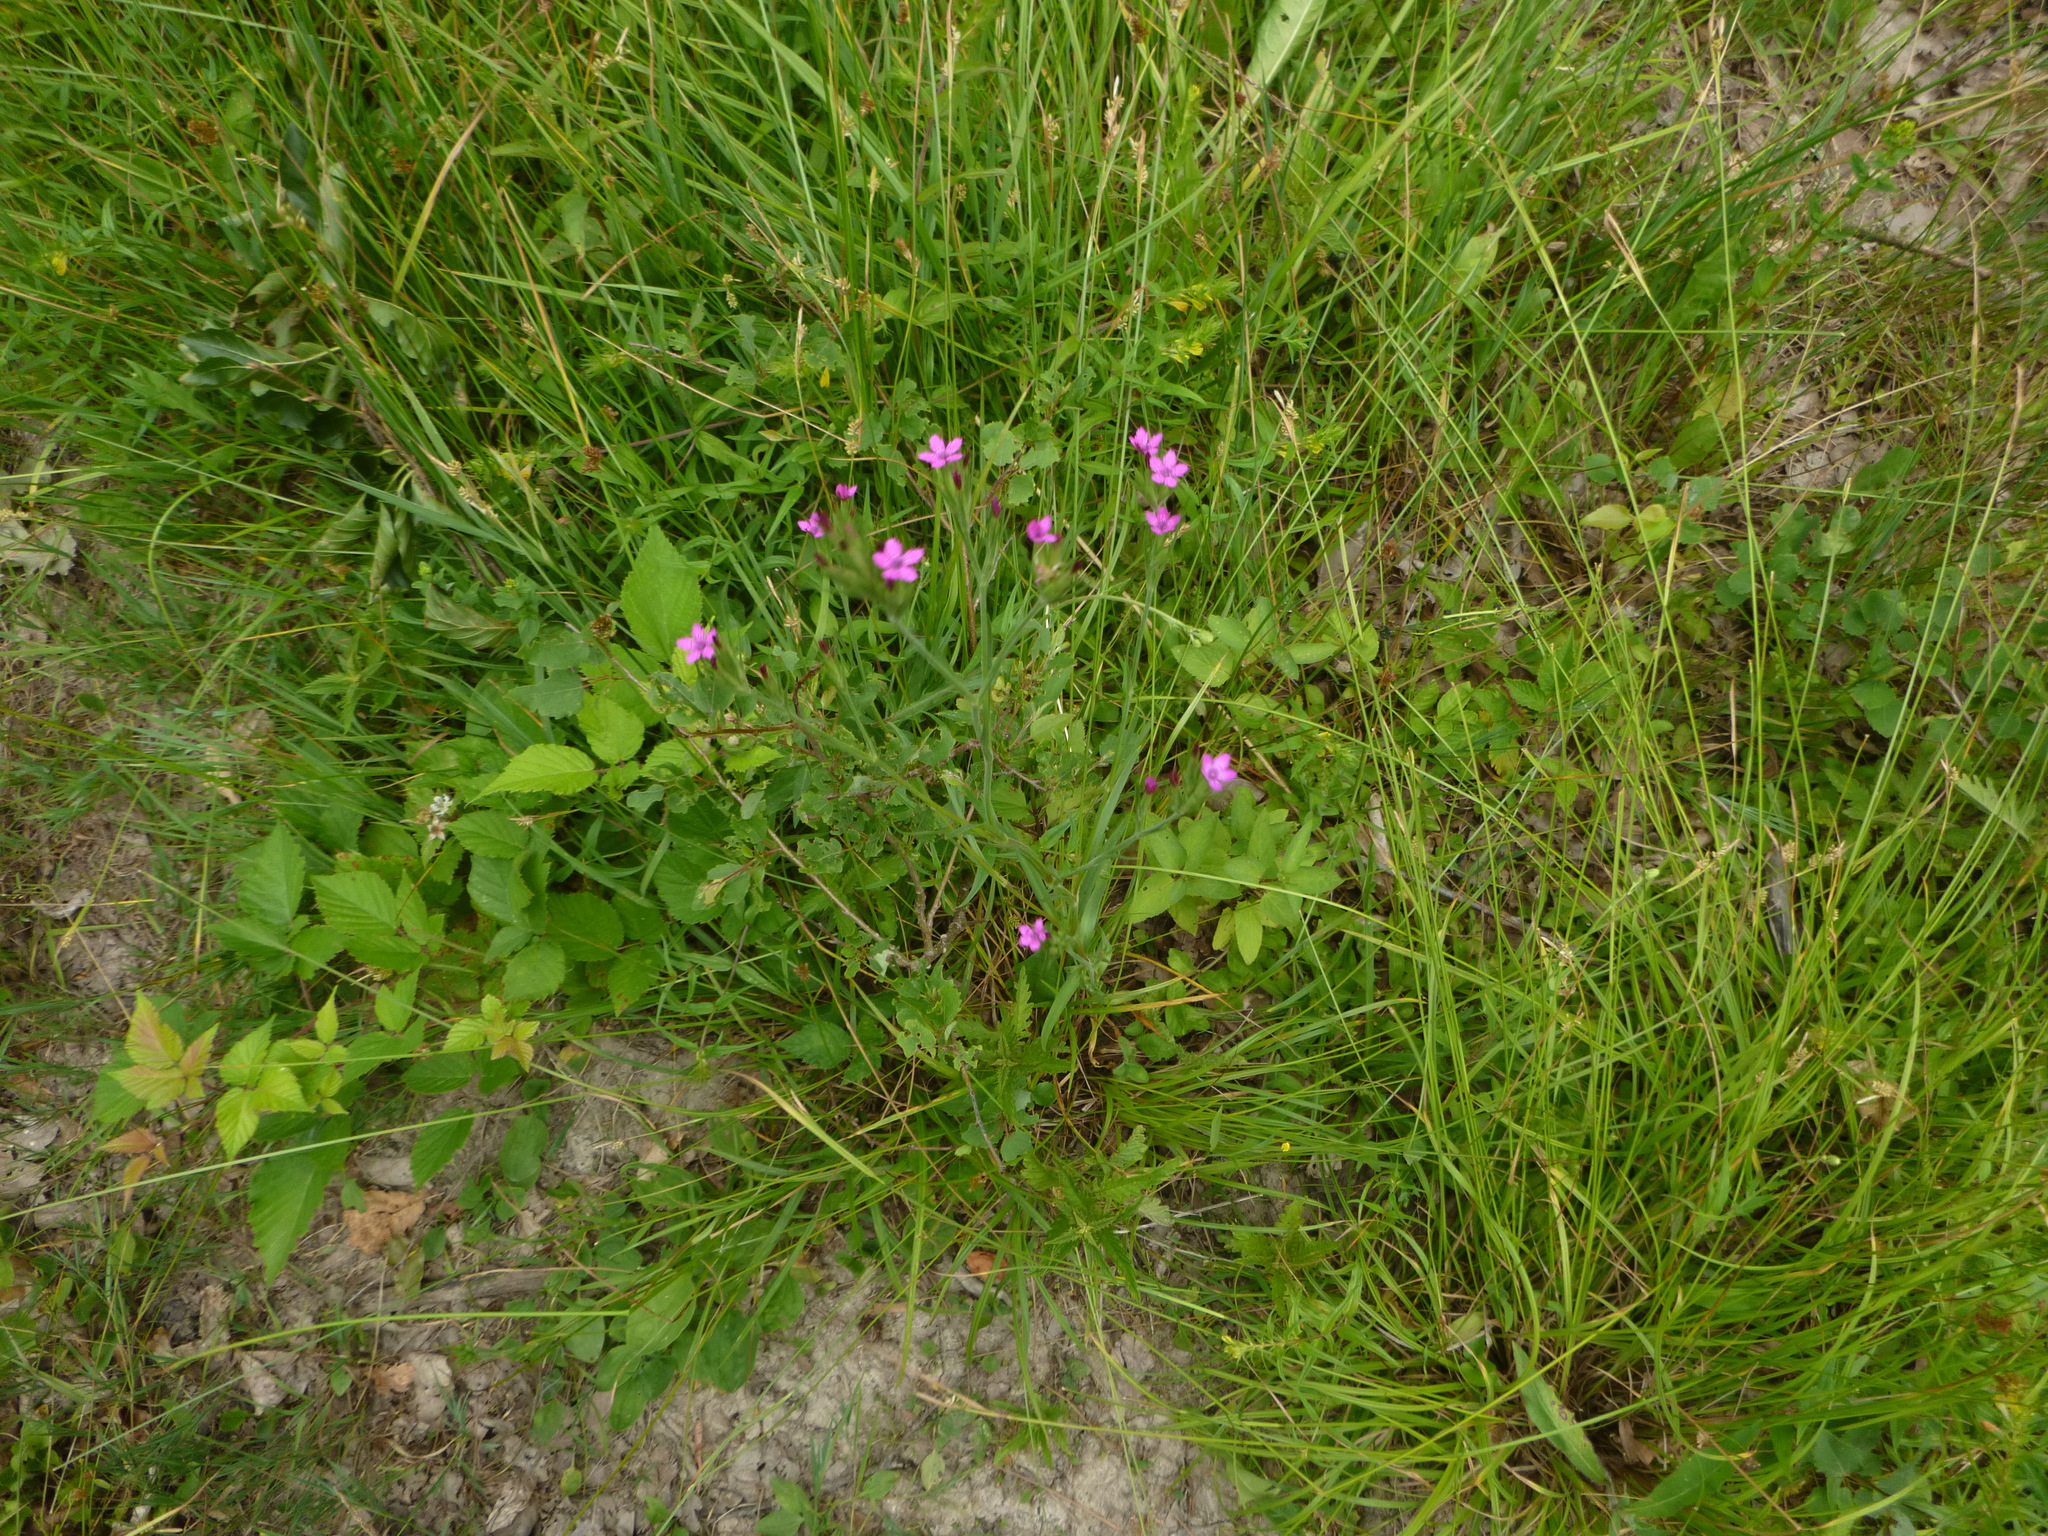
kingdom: Plantae
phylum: Tracheophyta
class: Magnoliopsida
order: Caryophyllales
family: Caryophyllaceae
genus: Dianthus
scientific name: Dianthus armeria
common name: Deptford pink
